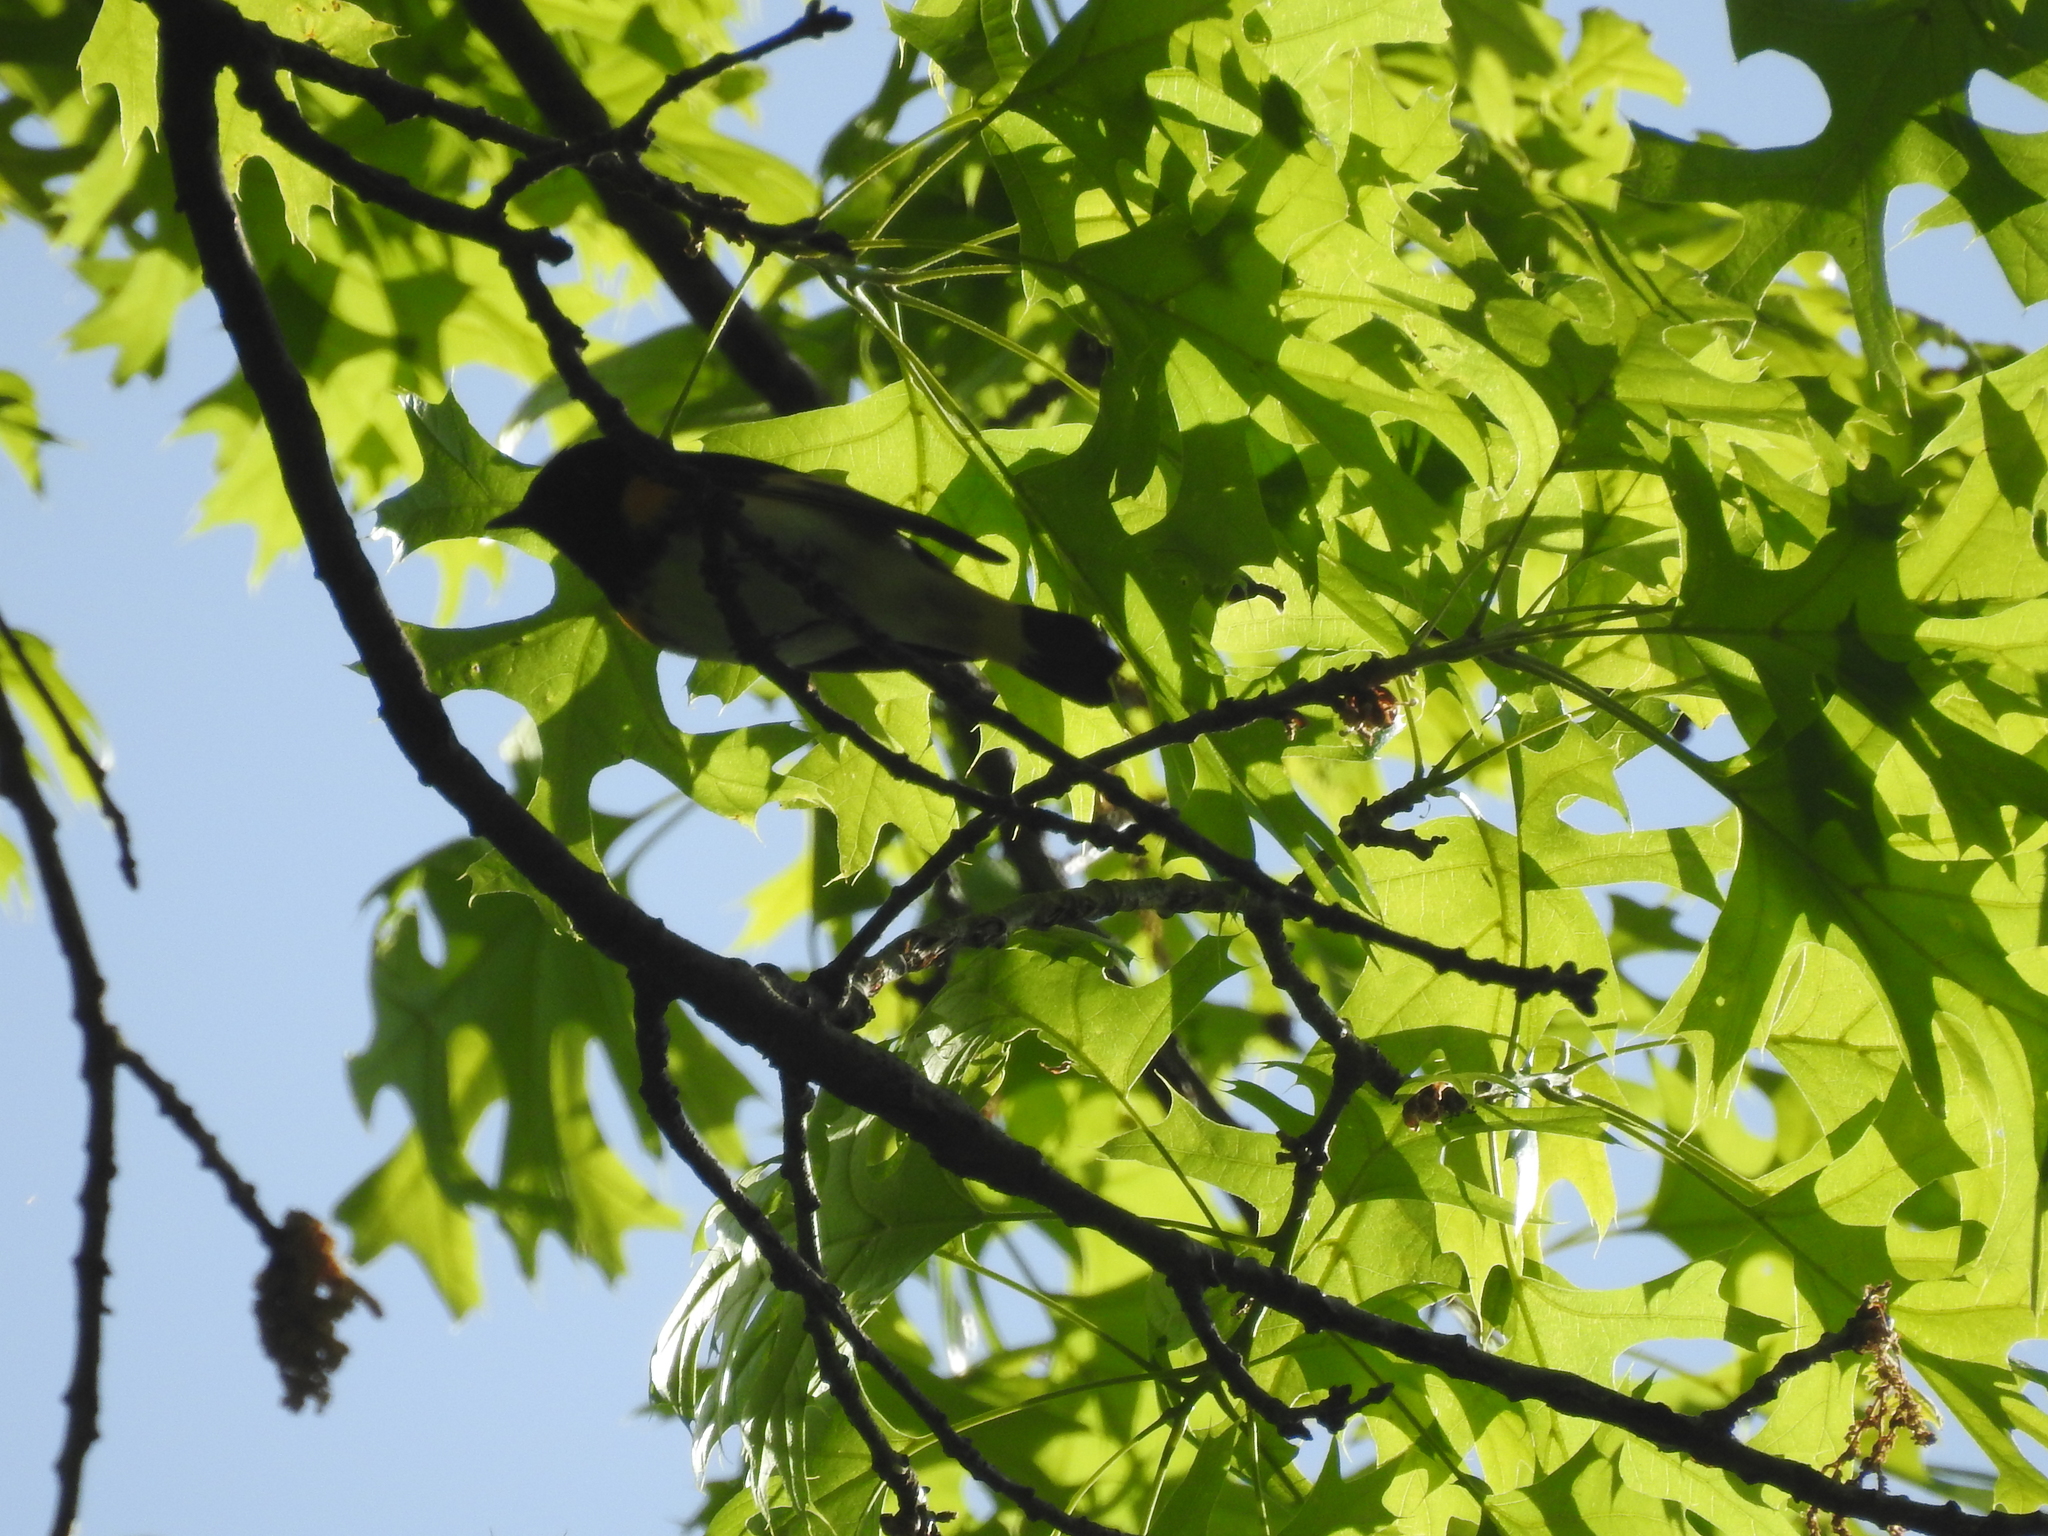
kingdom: Animalia
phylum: Chordata
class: Aves
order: Passeriformes
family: Parulidae
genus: Setophaga
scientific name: Setophaga ruticilla
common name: American redstart
